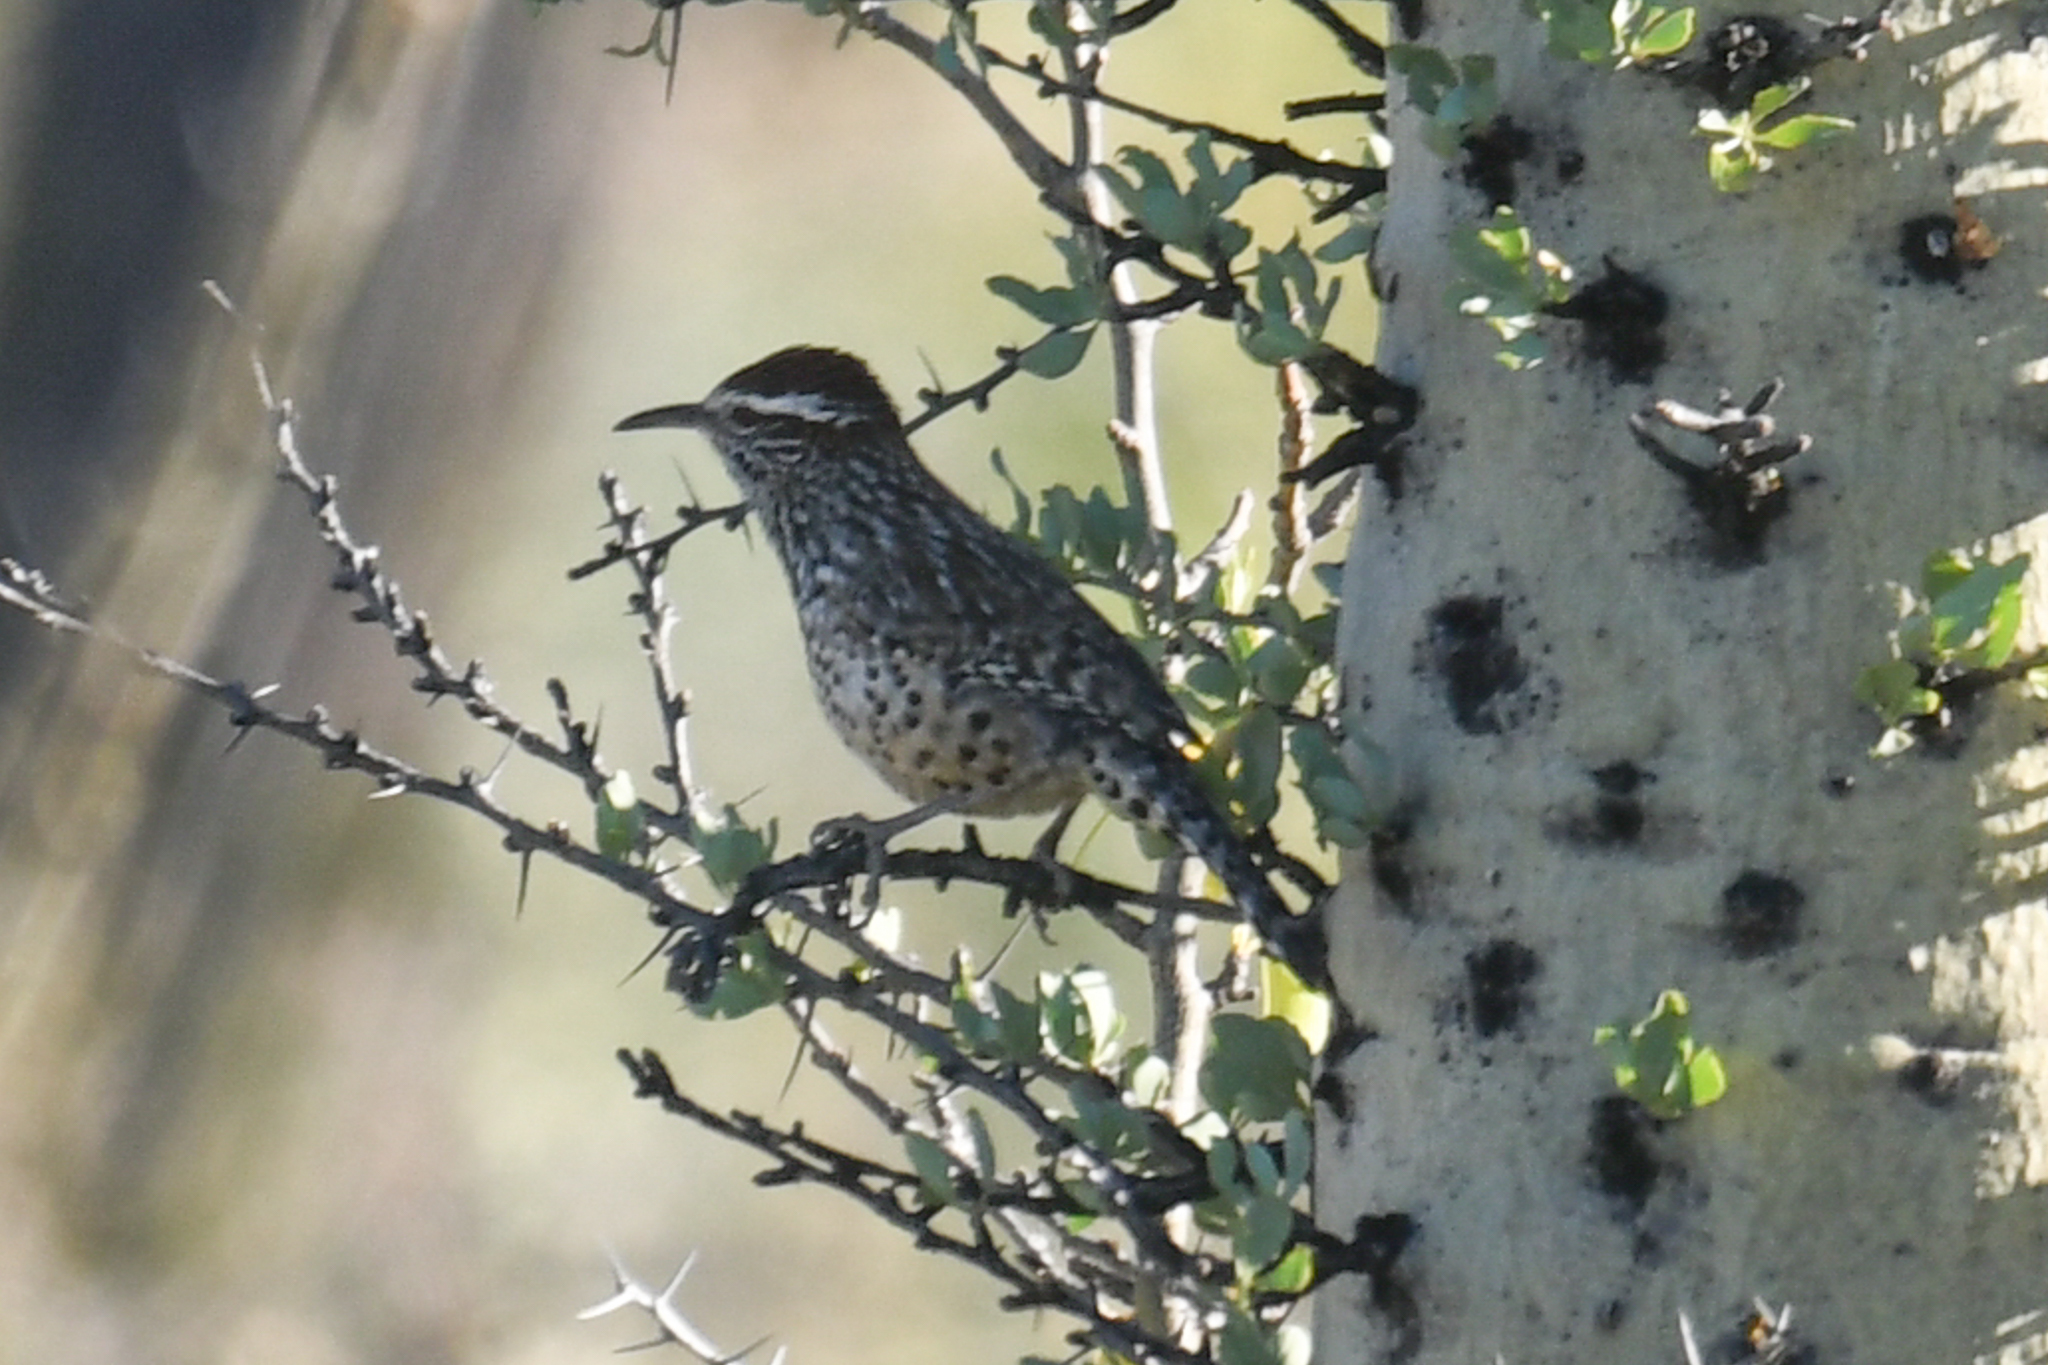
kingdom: Animalia
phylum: Chordata
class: Aves
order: Passeriformes
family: Troglodytidae
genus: Campylorhynchus
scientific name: Campylorhynchus brunneicapillus
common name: Cactus wren
